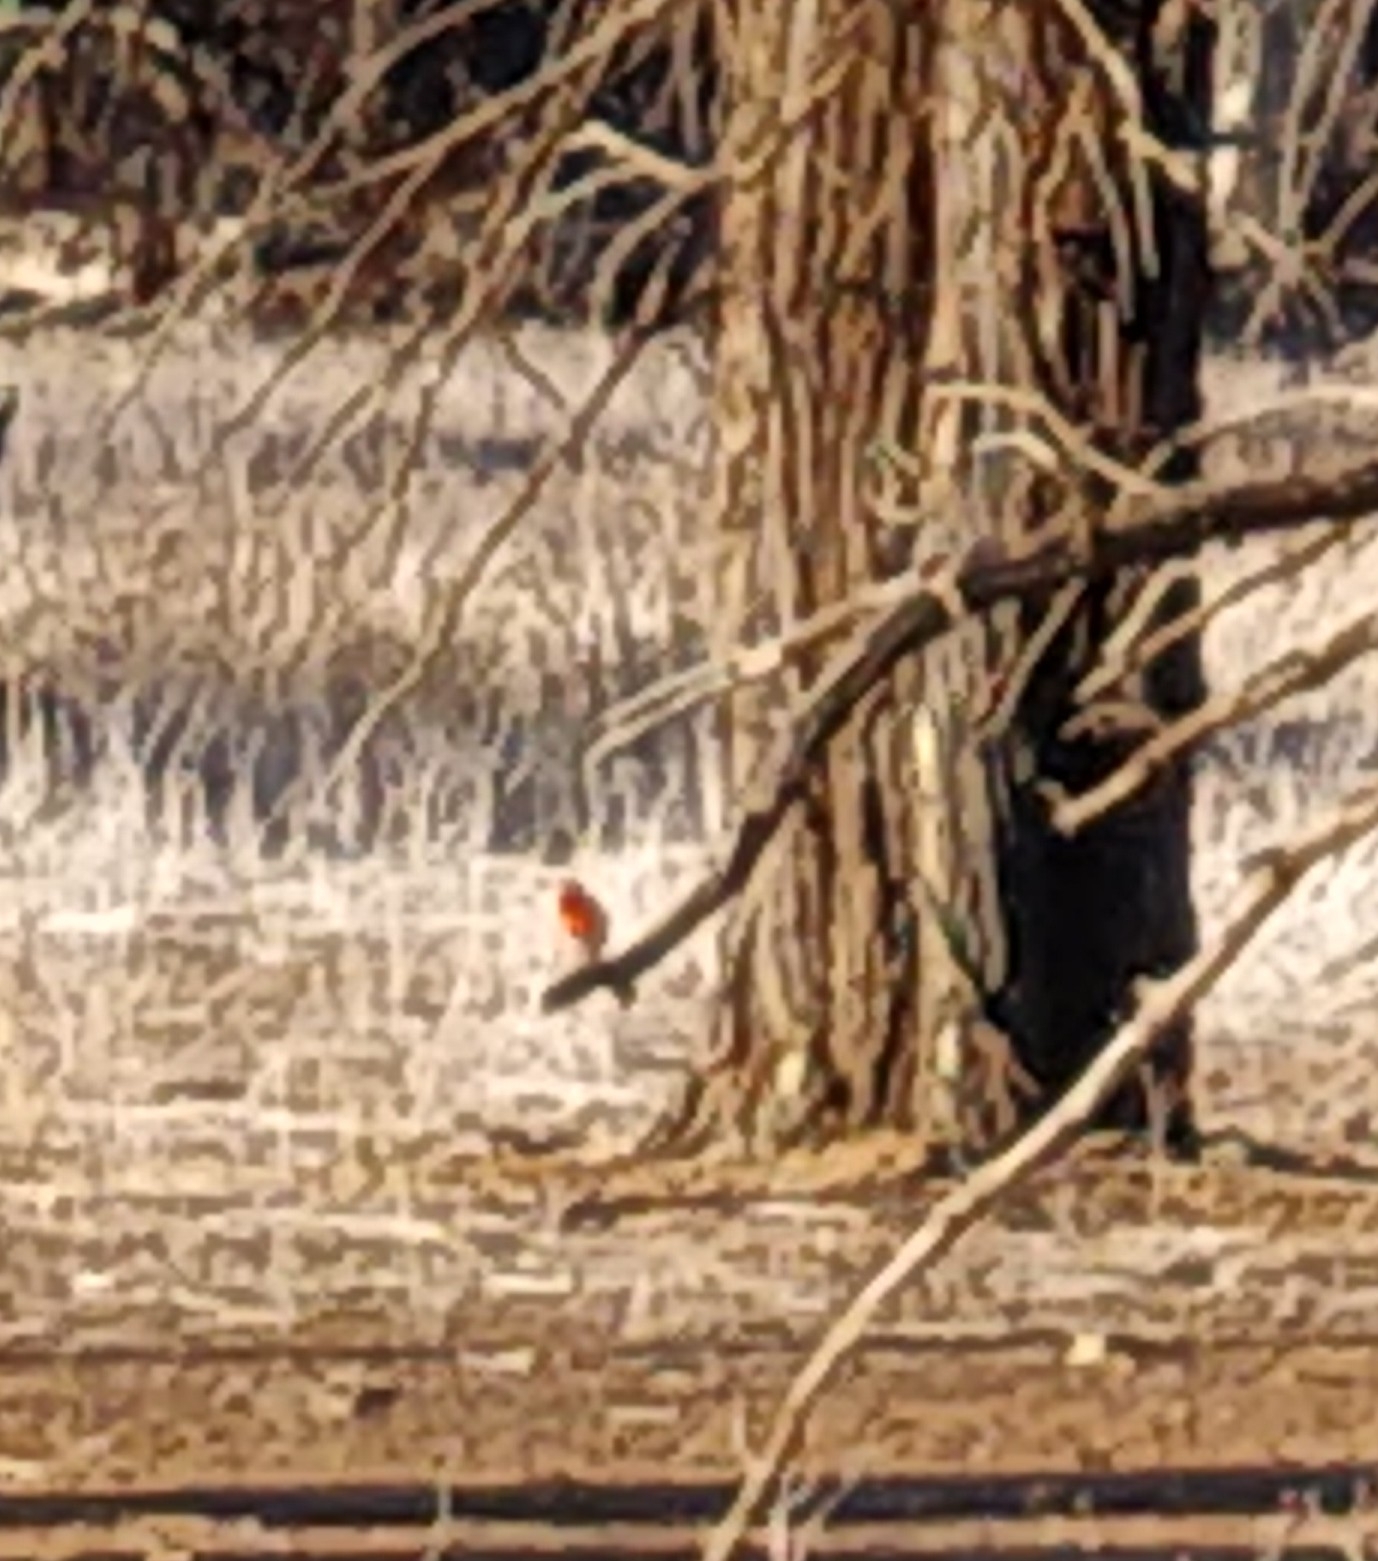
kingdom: Animalia
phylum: Chordata
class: Aves
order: Passeriformes
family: Petroicidae
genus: Petroica
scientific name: Petroica goodenovii
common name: Red-capped robin
